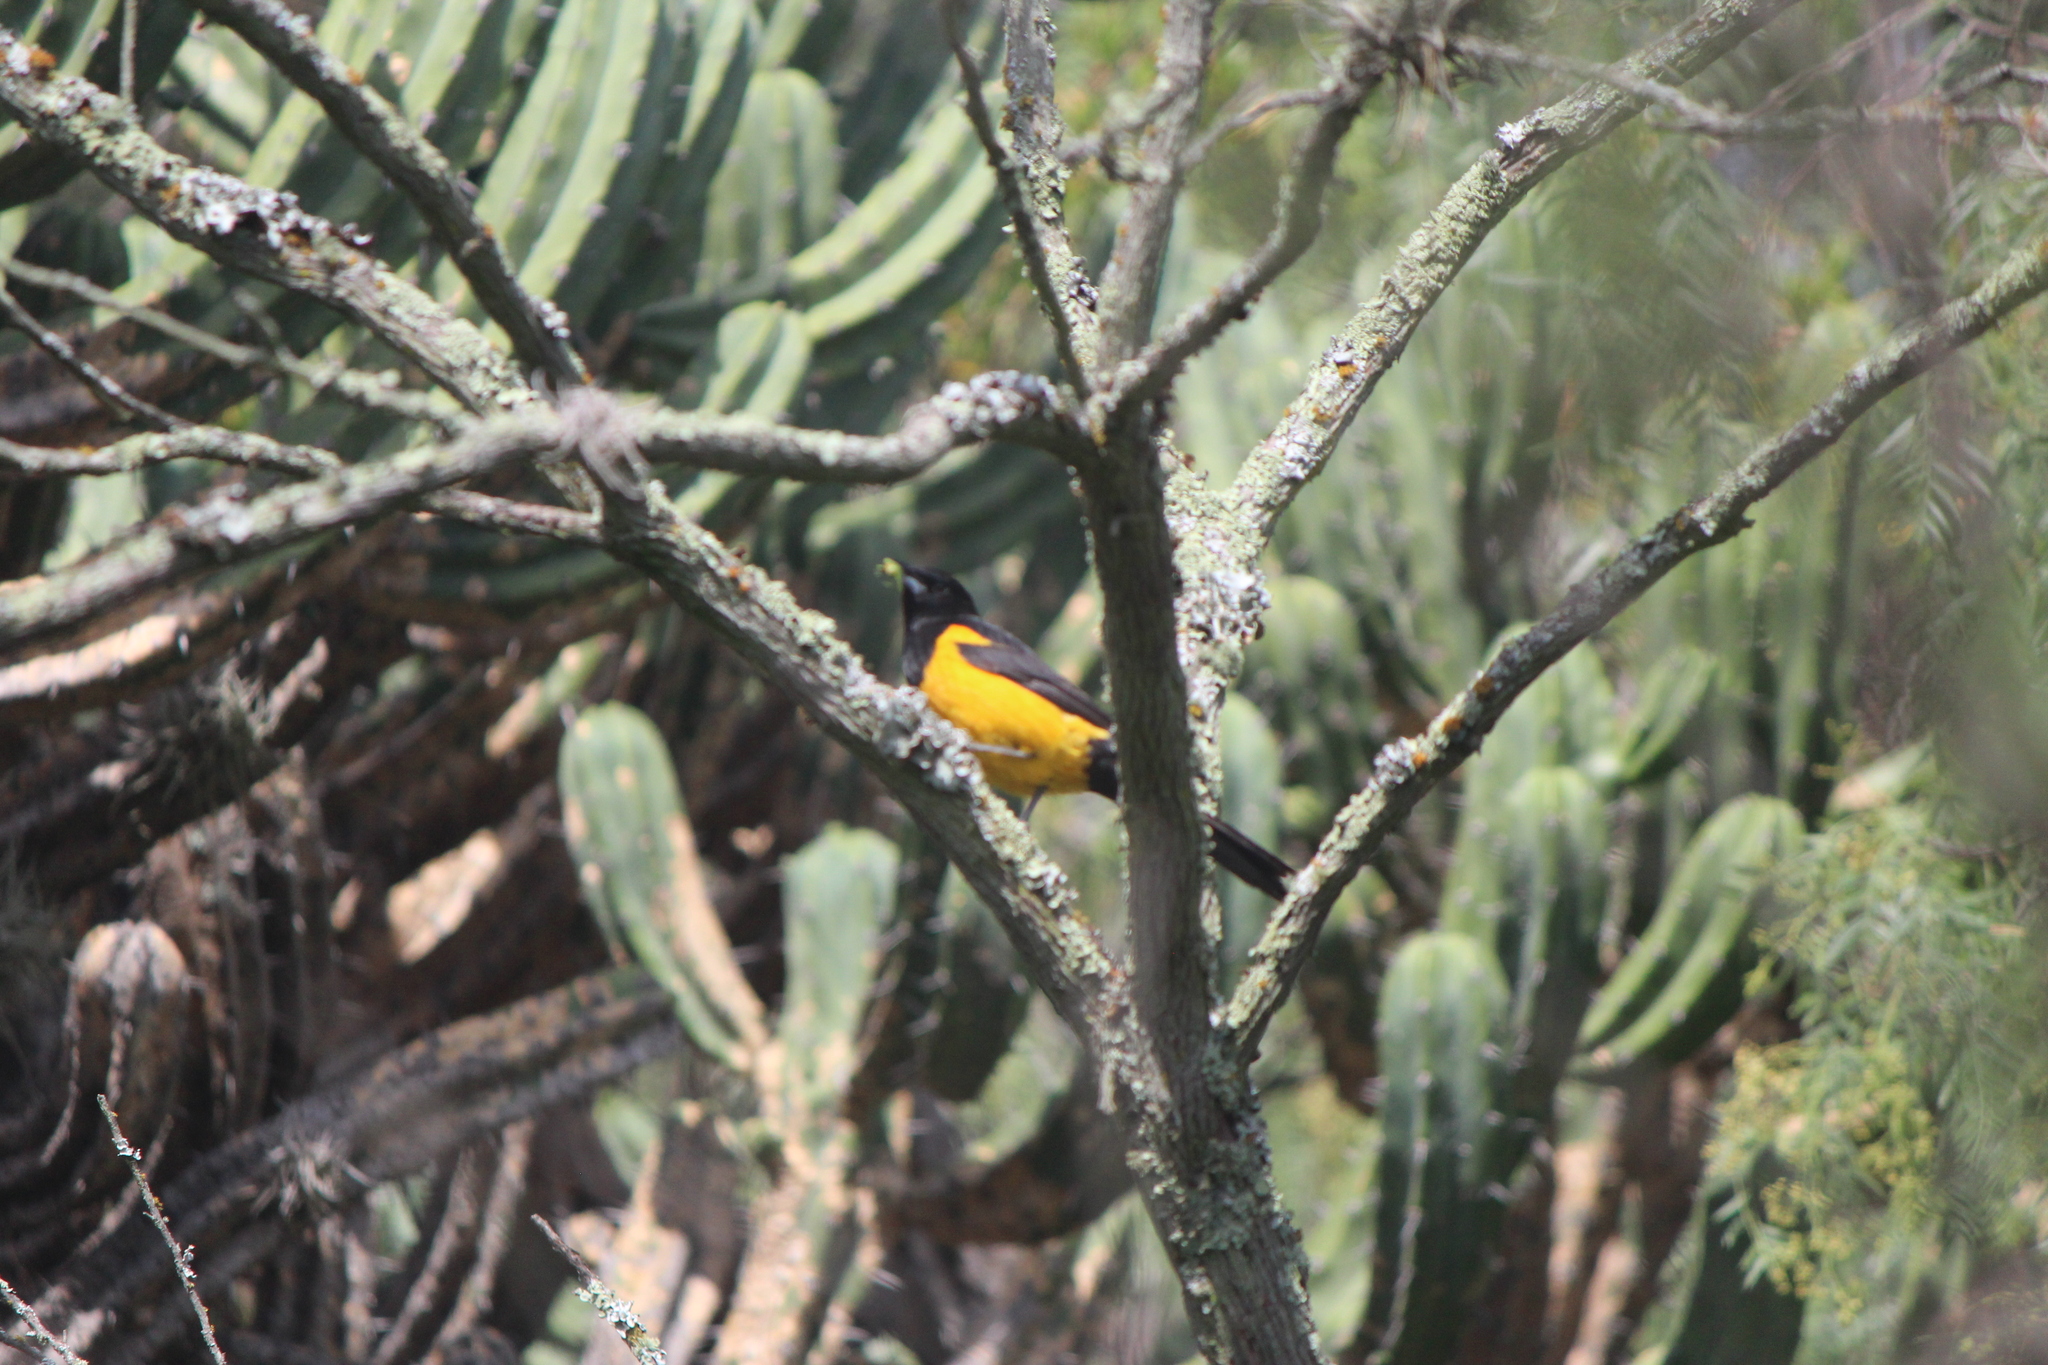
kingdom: Animalia
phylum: Chordata
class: Aves
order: Passeriformes
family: Icteridae
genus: Icterus
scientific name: Icterus wagleri
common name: Black-vented oriole
